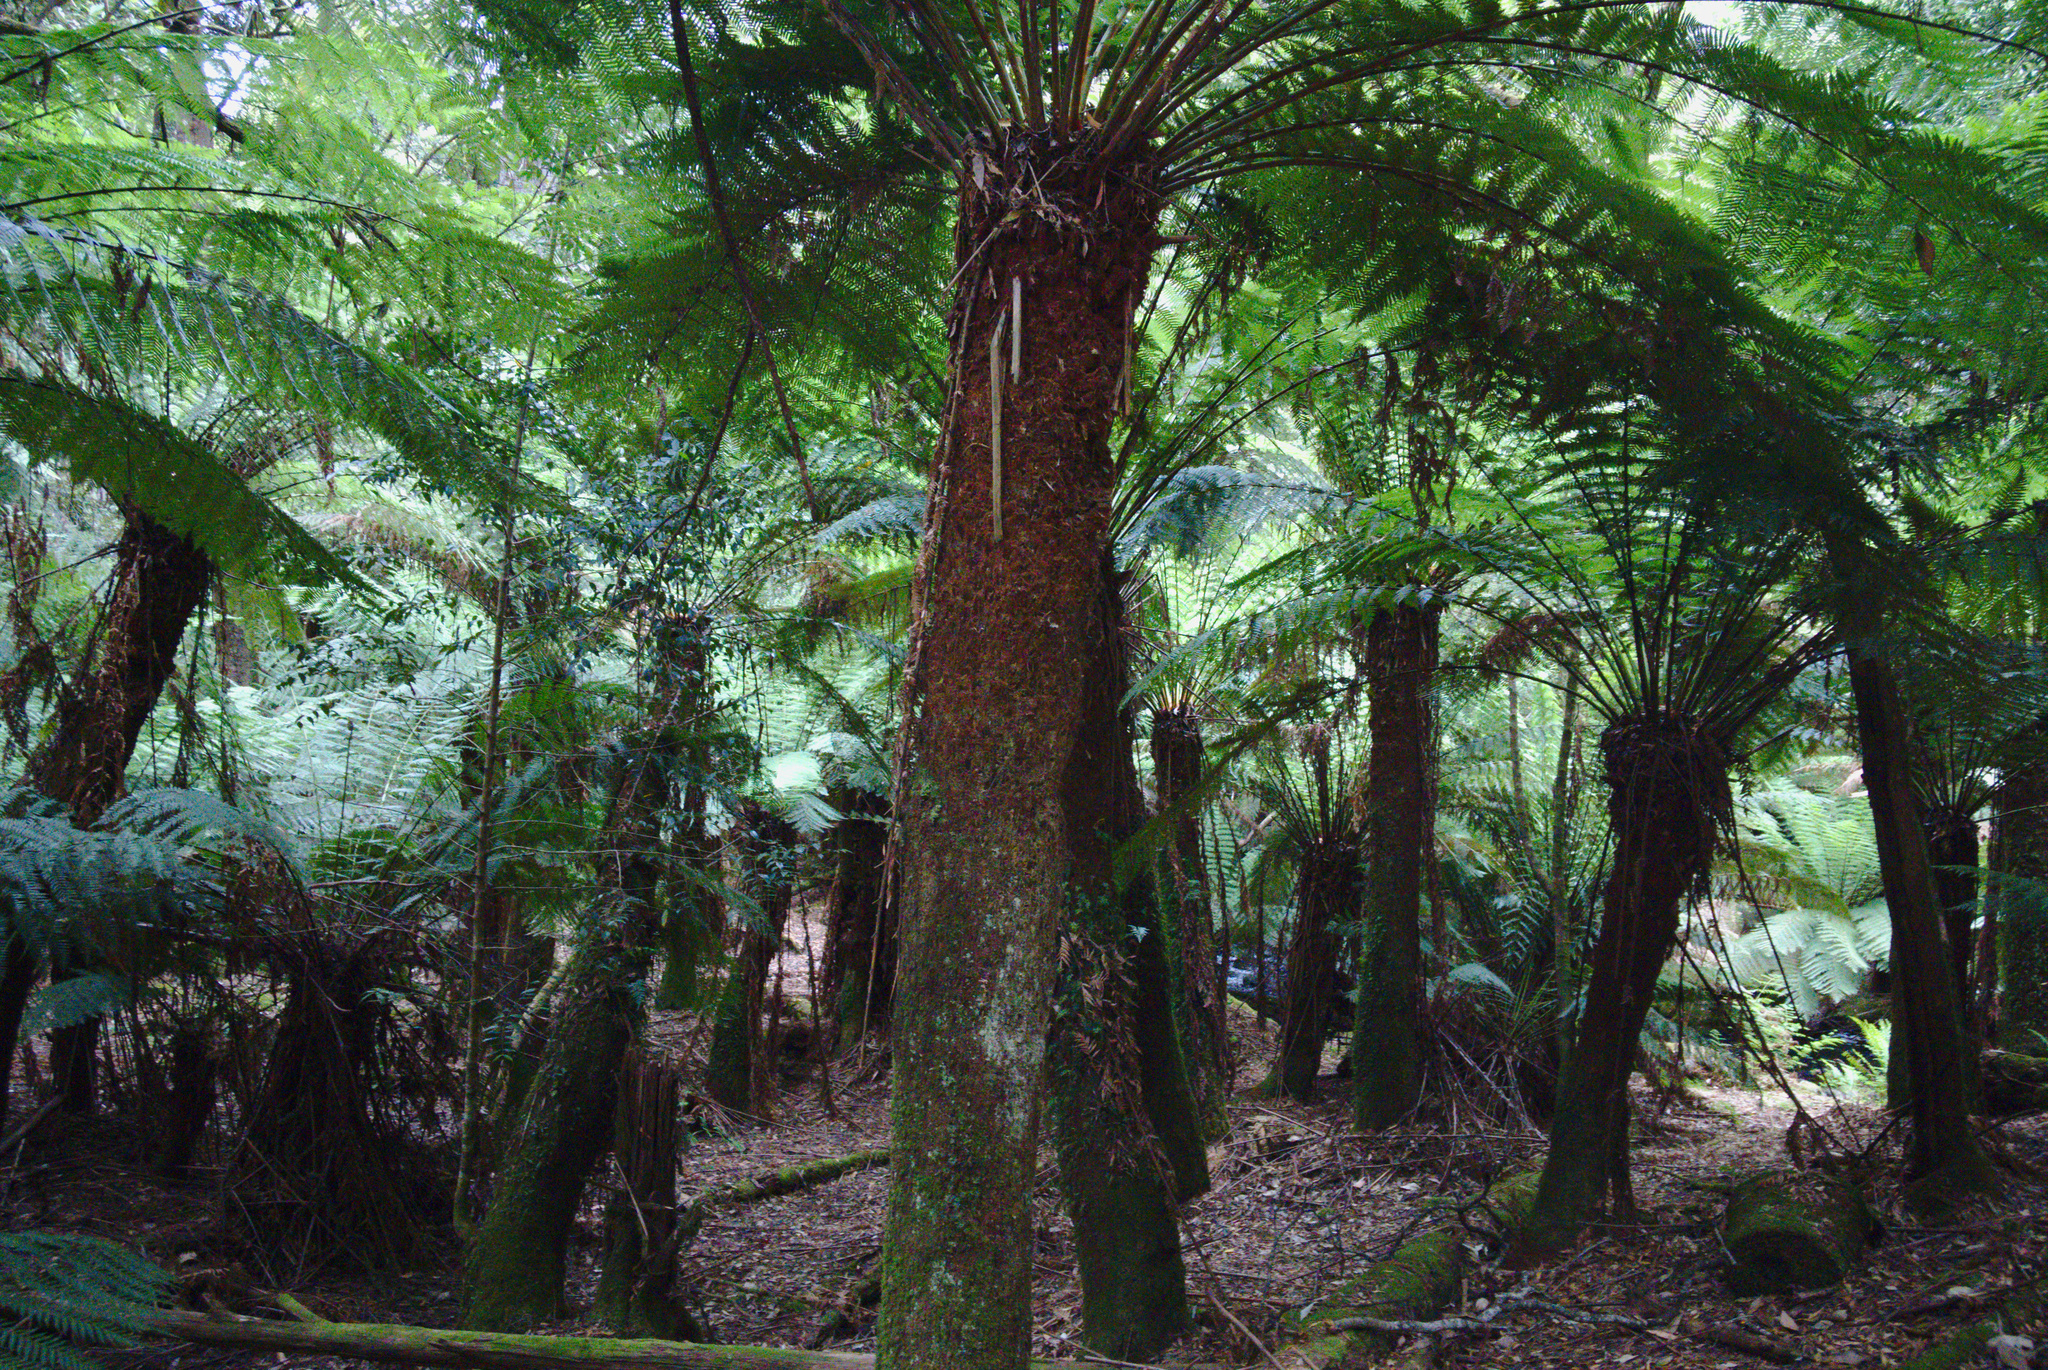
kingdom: Plantae
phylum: Tracheophyta
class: Polypodiopsida
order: Cyatheales
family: Dicksoniaceae
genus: Dicksonia
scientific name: Dicksonia antarctica
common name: Australian treefern
